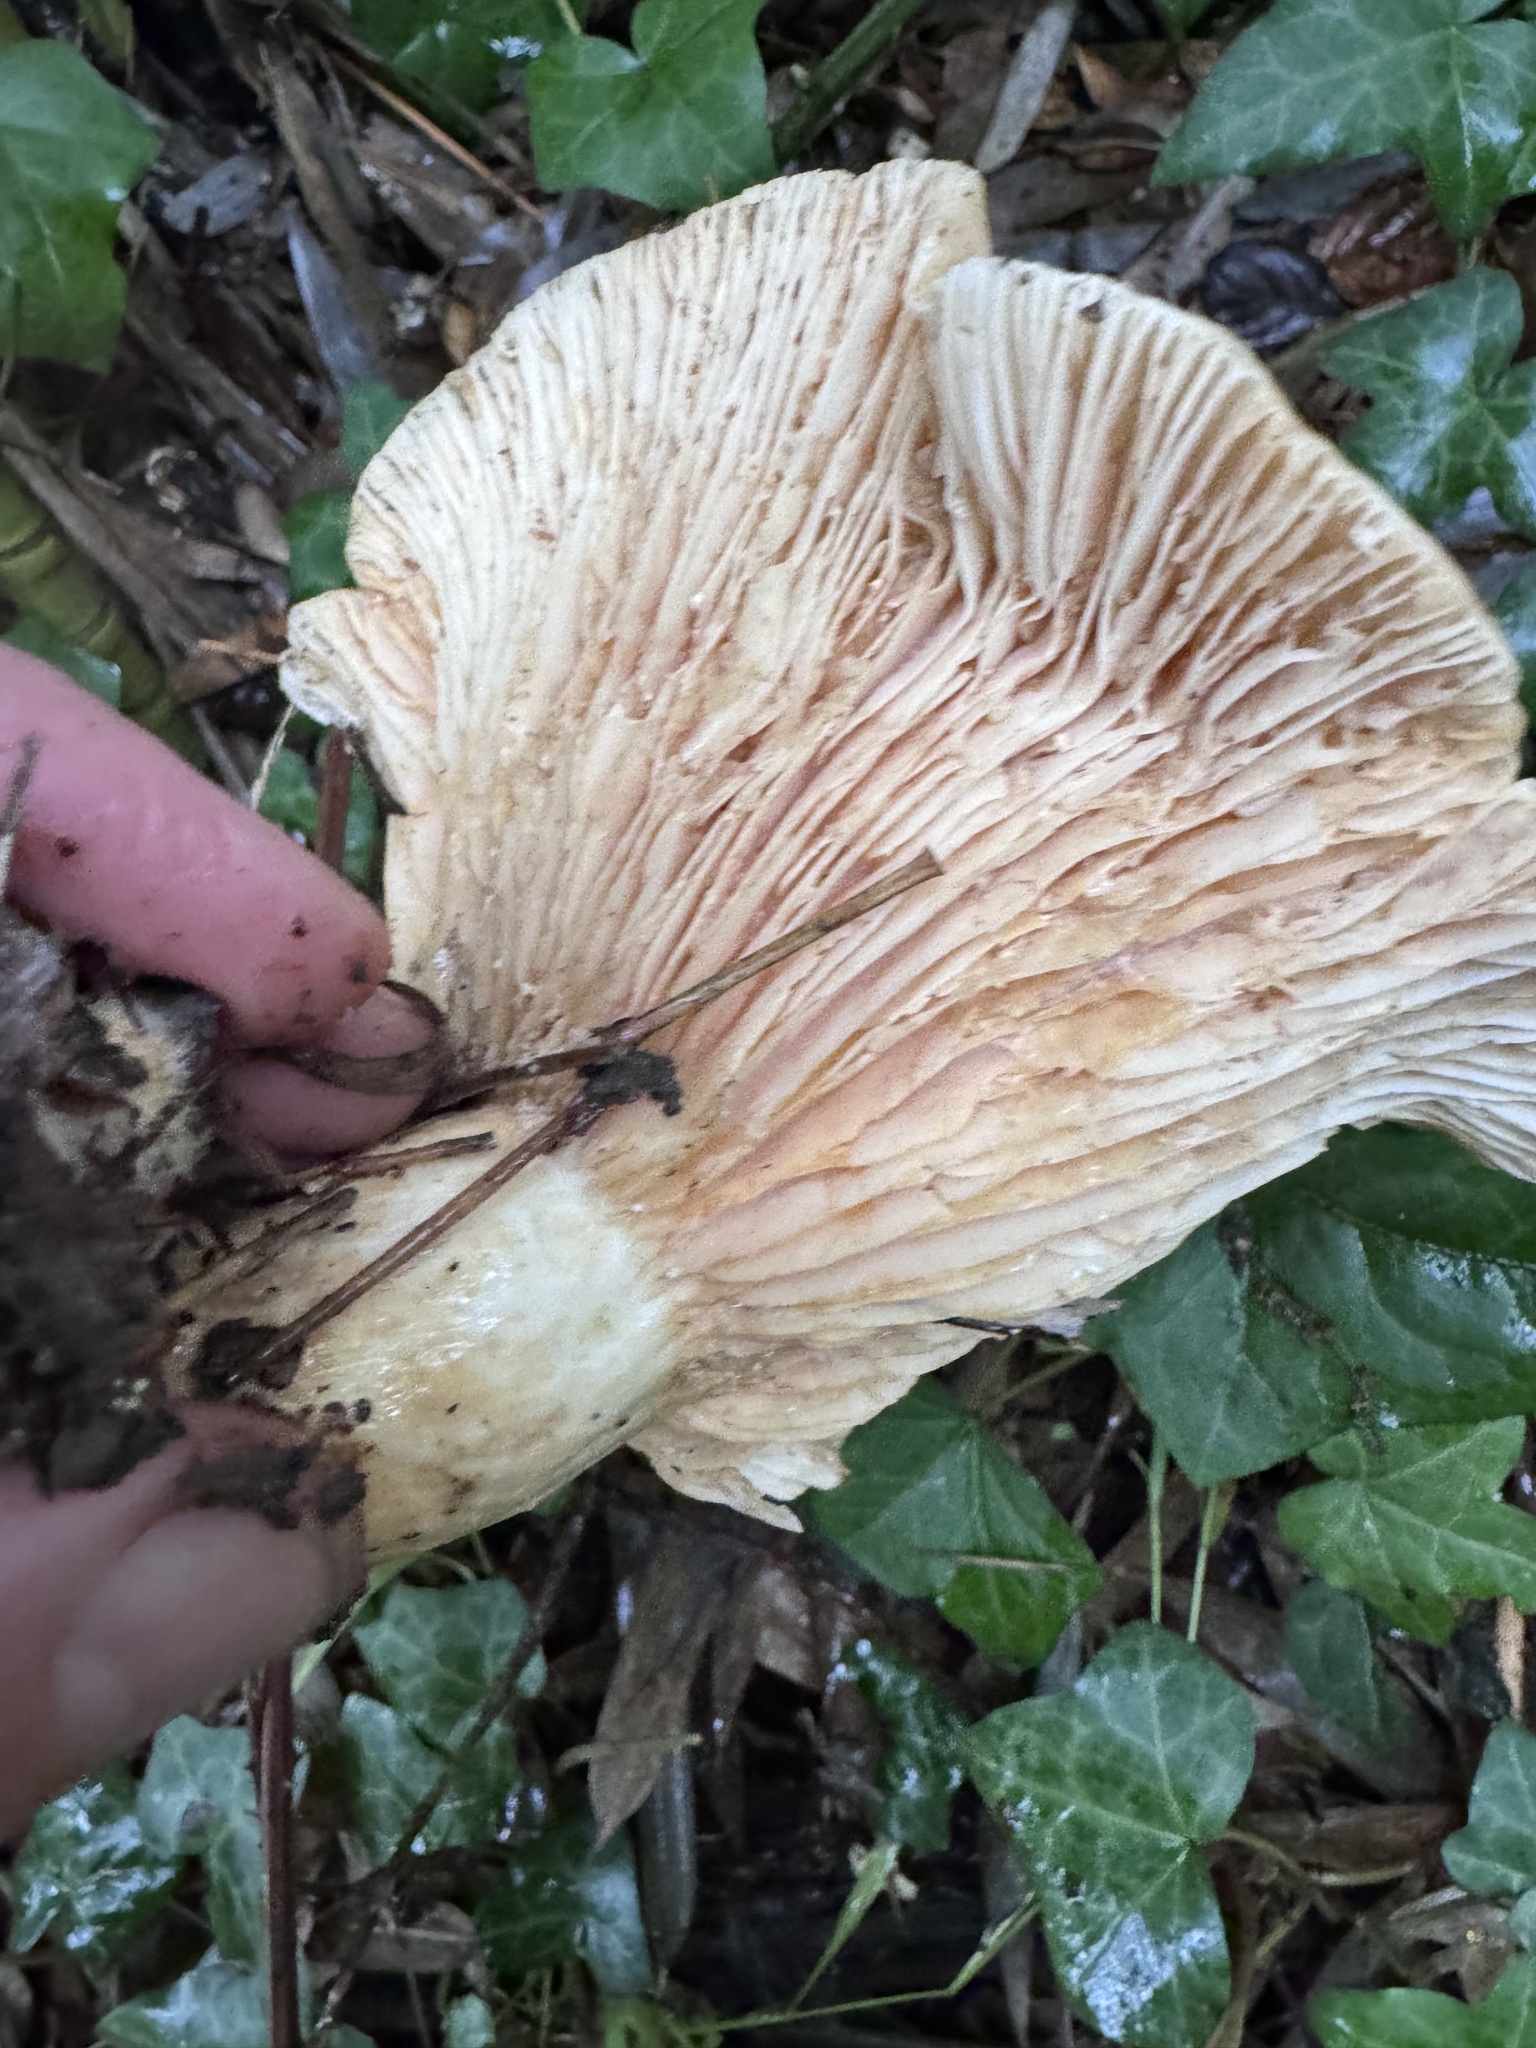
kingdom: Fungi
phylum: Basidiomycota
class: Agaricomycetes
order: Russulales
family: Russulaceae
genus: Lactarius
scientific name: Lactarius alnicola
